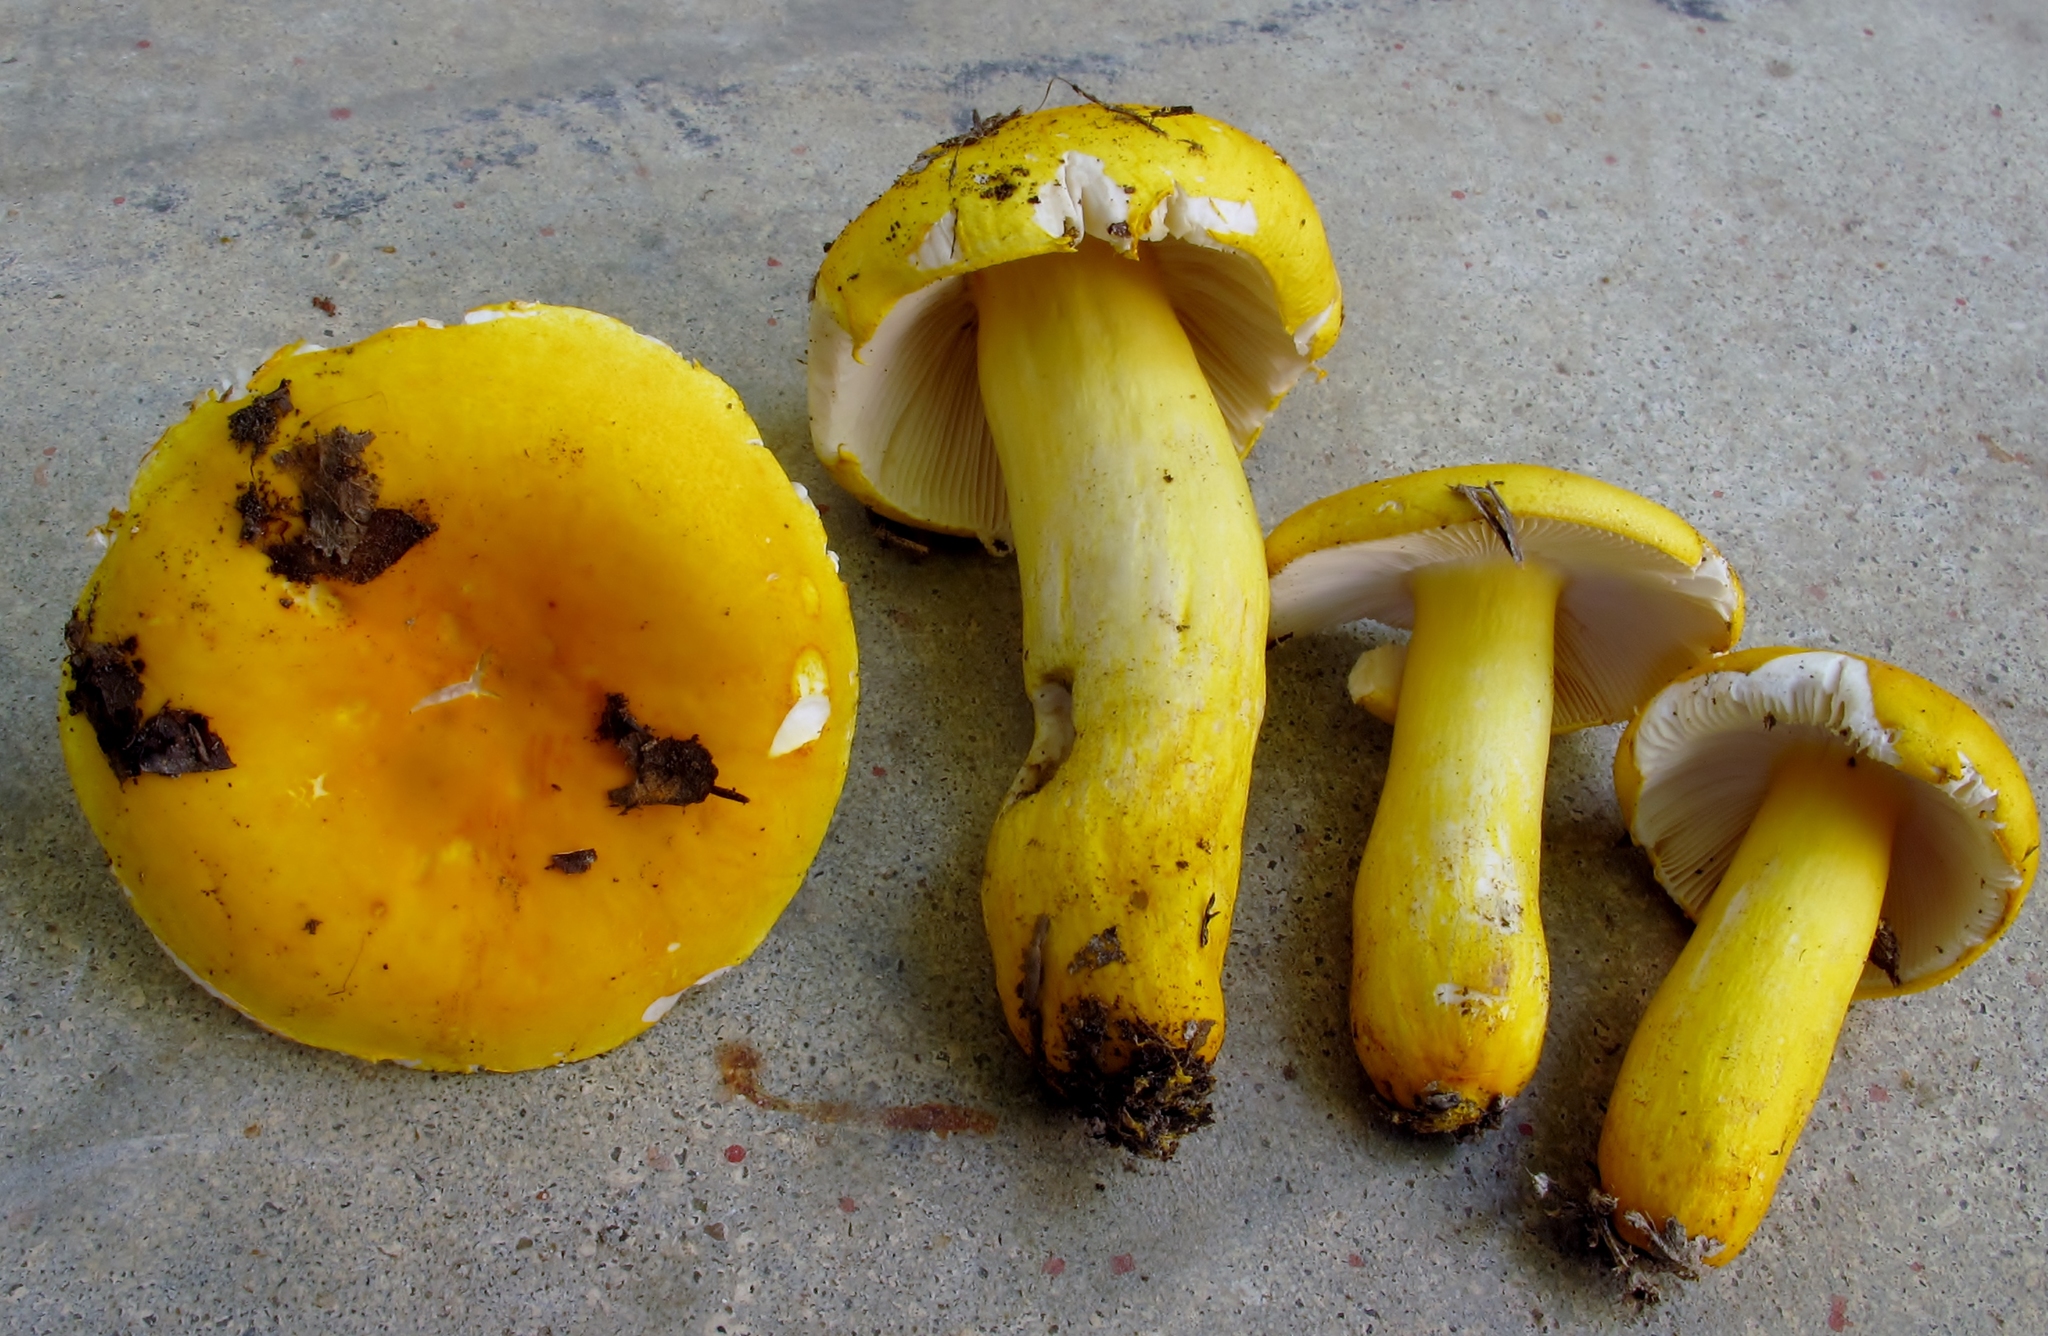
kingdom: Fungi
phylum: Basidiomycota
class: Agaricomycetes
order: Russulales
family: Russulaceae
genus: Russula
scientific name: Russula flavida
